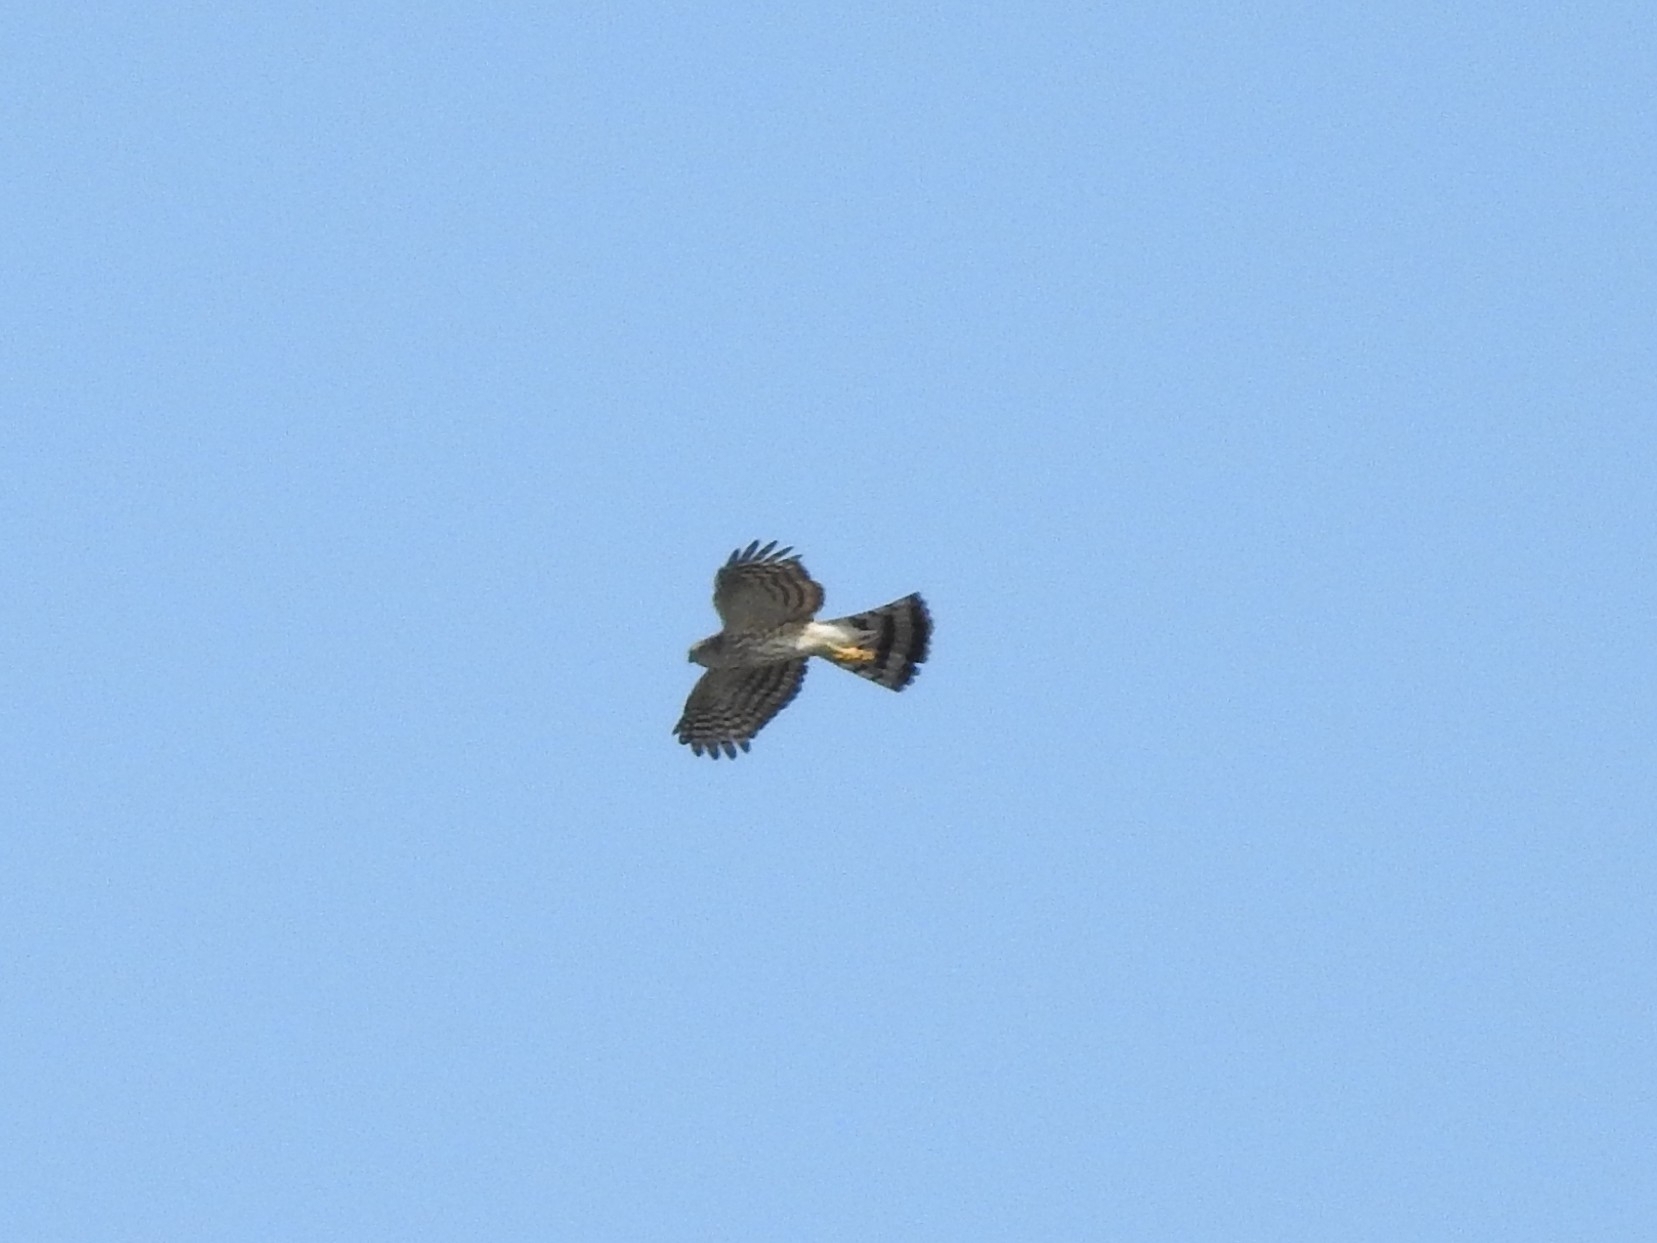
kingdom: Animalia
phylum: Chordata
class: Aves
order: Accipitriformes
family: Accipitridae
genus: Accipiter
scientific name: Accipiter striatus
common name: Sharp-shinned hawk
